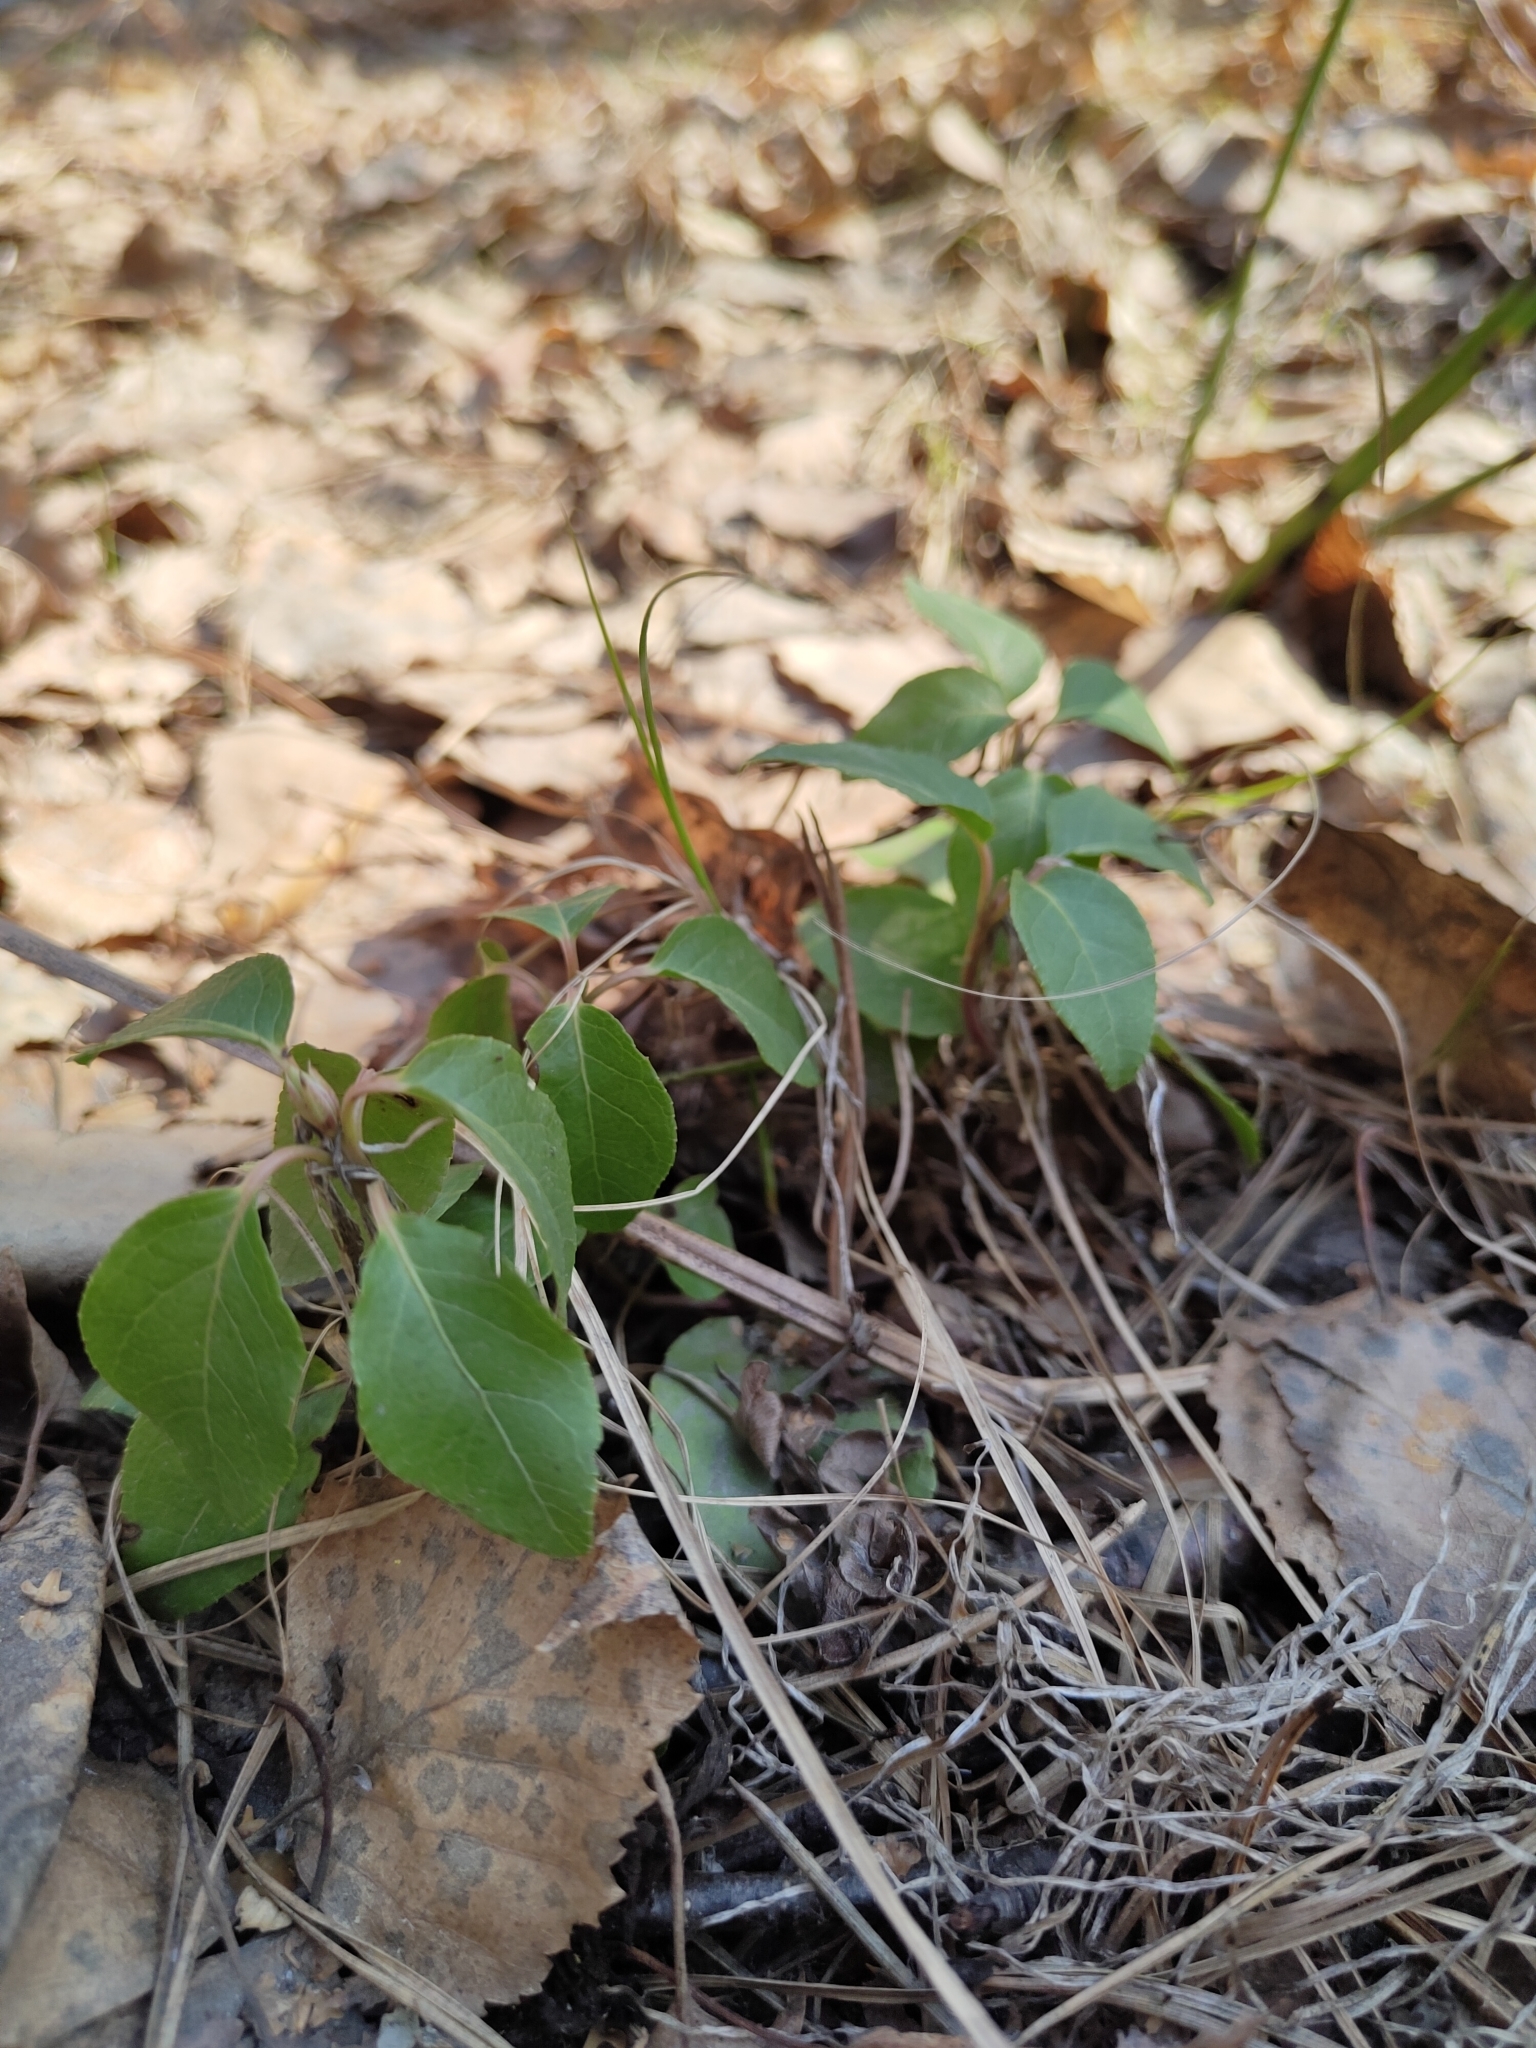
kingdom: Plantae
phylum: Tracheophyta
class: Magnoliopsida
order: Ericales
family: Ericaceae
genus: Orthilia
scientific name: Orthilia secunda
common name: One-sided orthilia
